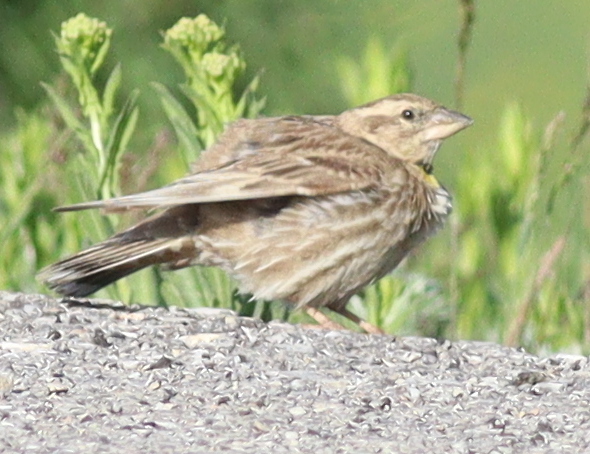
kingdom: Animalia
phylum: Chordata
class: Aves
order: Passeriformes
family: Passeridae
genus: Petronia
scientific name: Petronia petronia
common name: Rock sparrow
